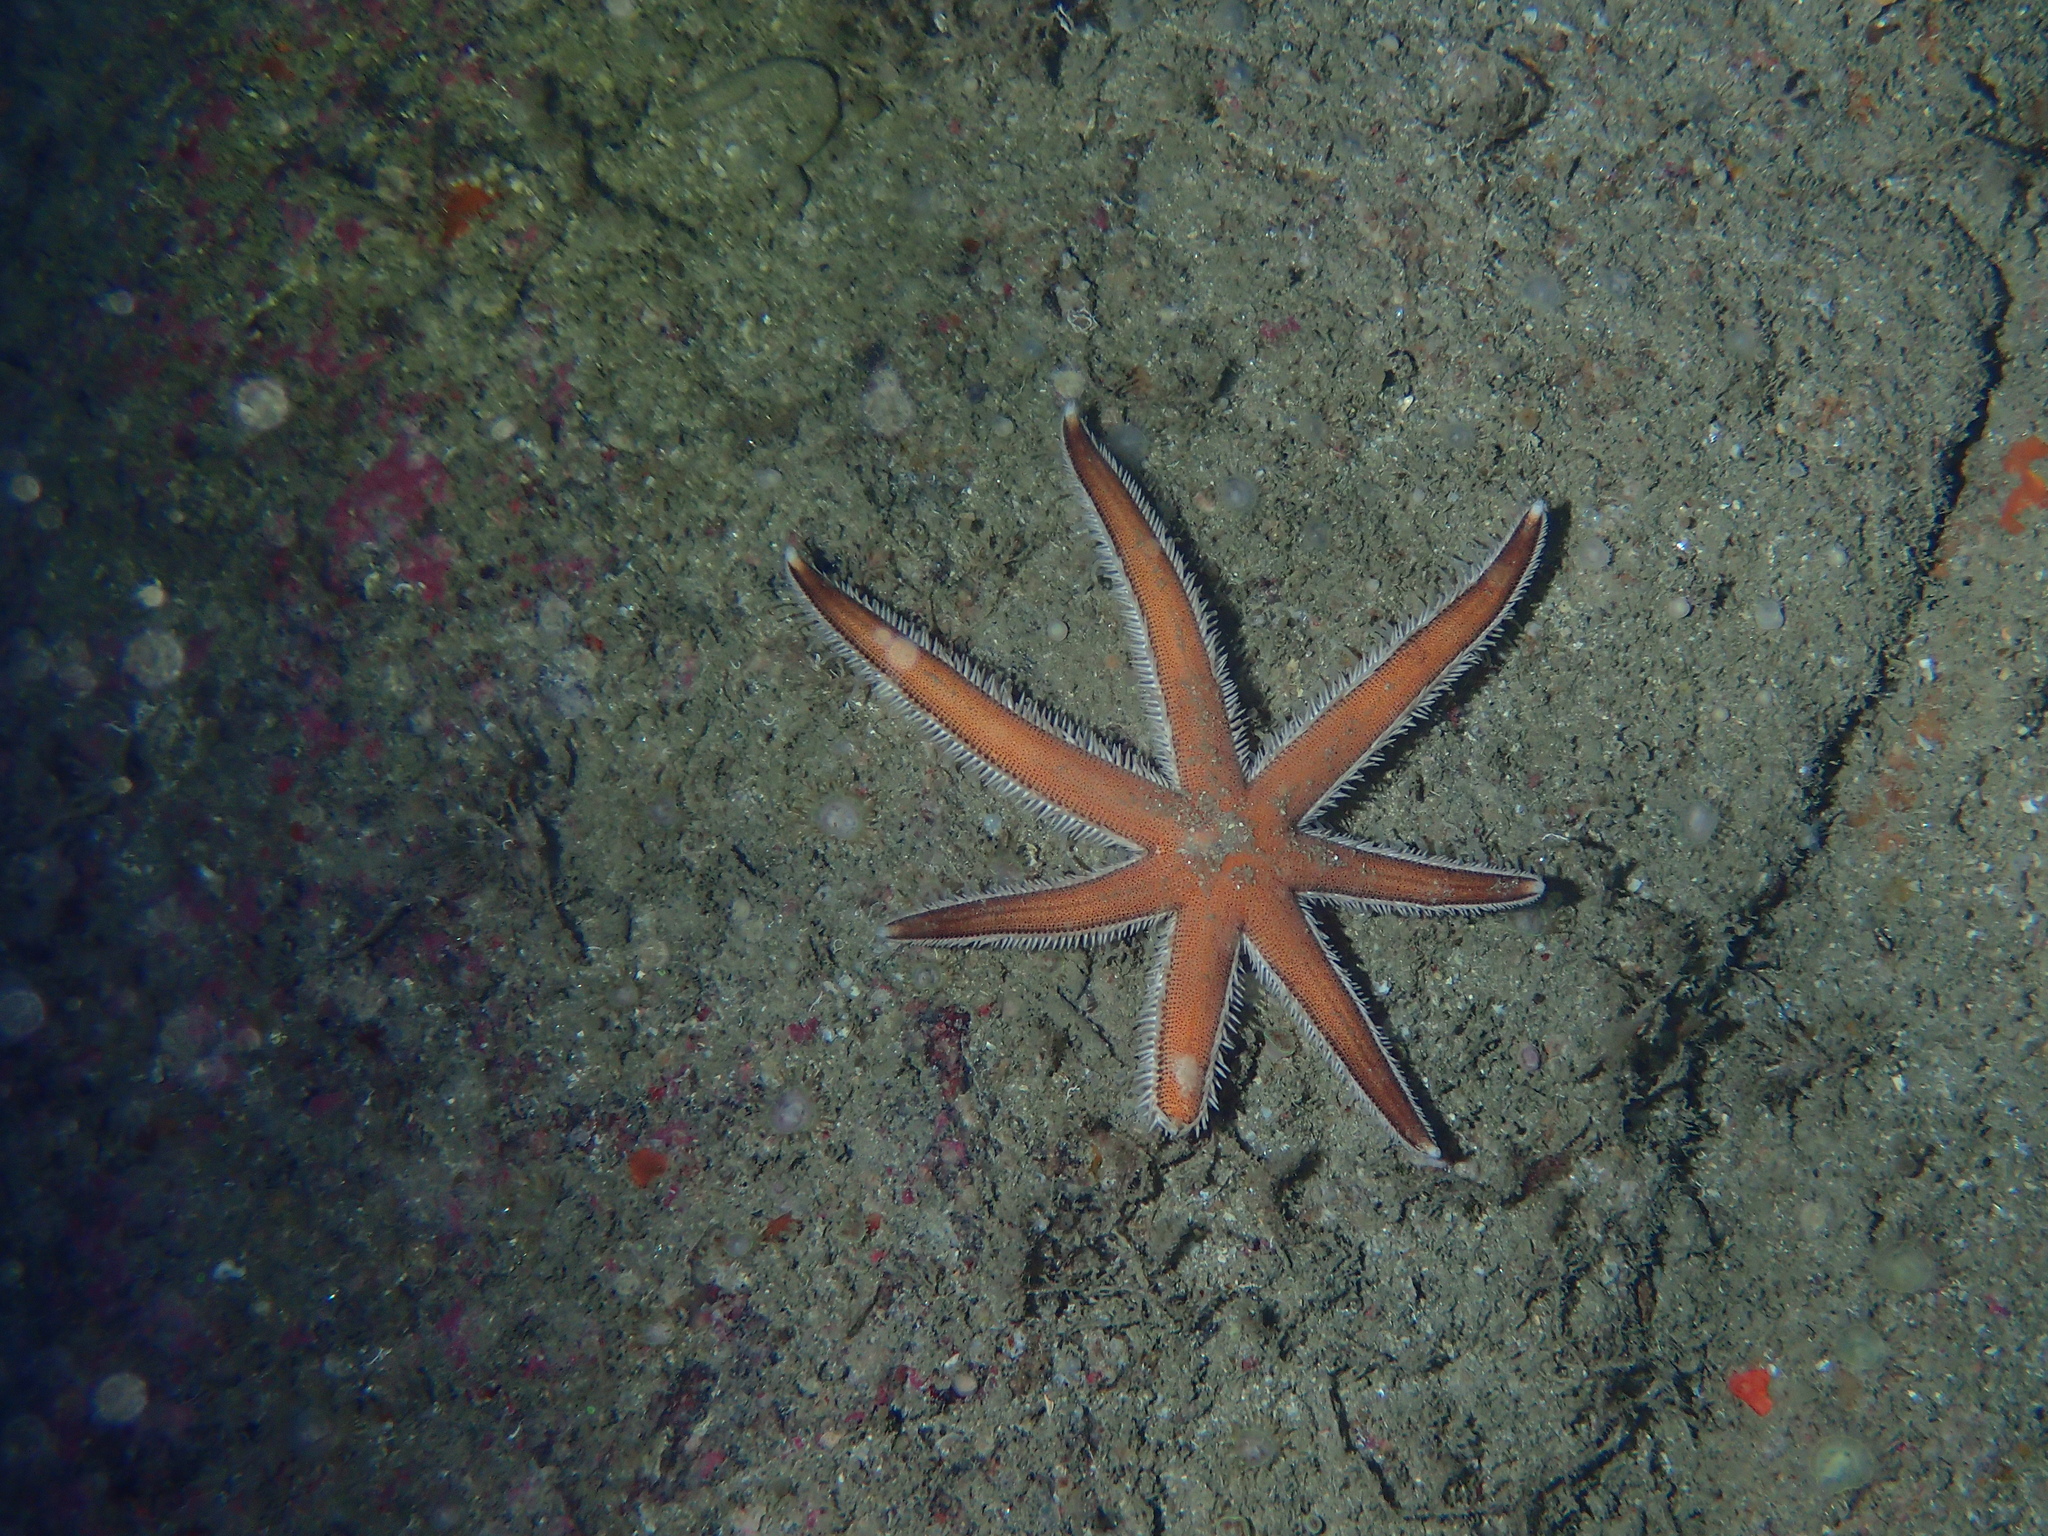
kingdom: Animalia
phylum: Echinodermata
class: Asteroidea
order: Paxillosida
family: Luidiidae
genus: Luidia
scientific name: Luidia ciliaris
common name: Seven-armed starfish
